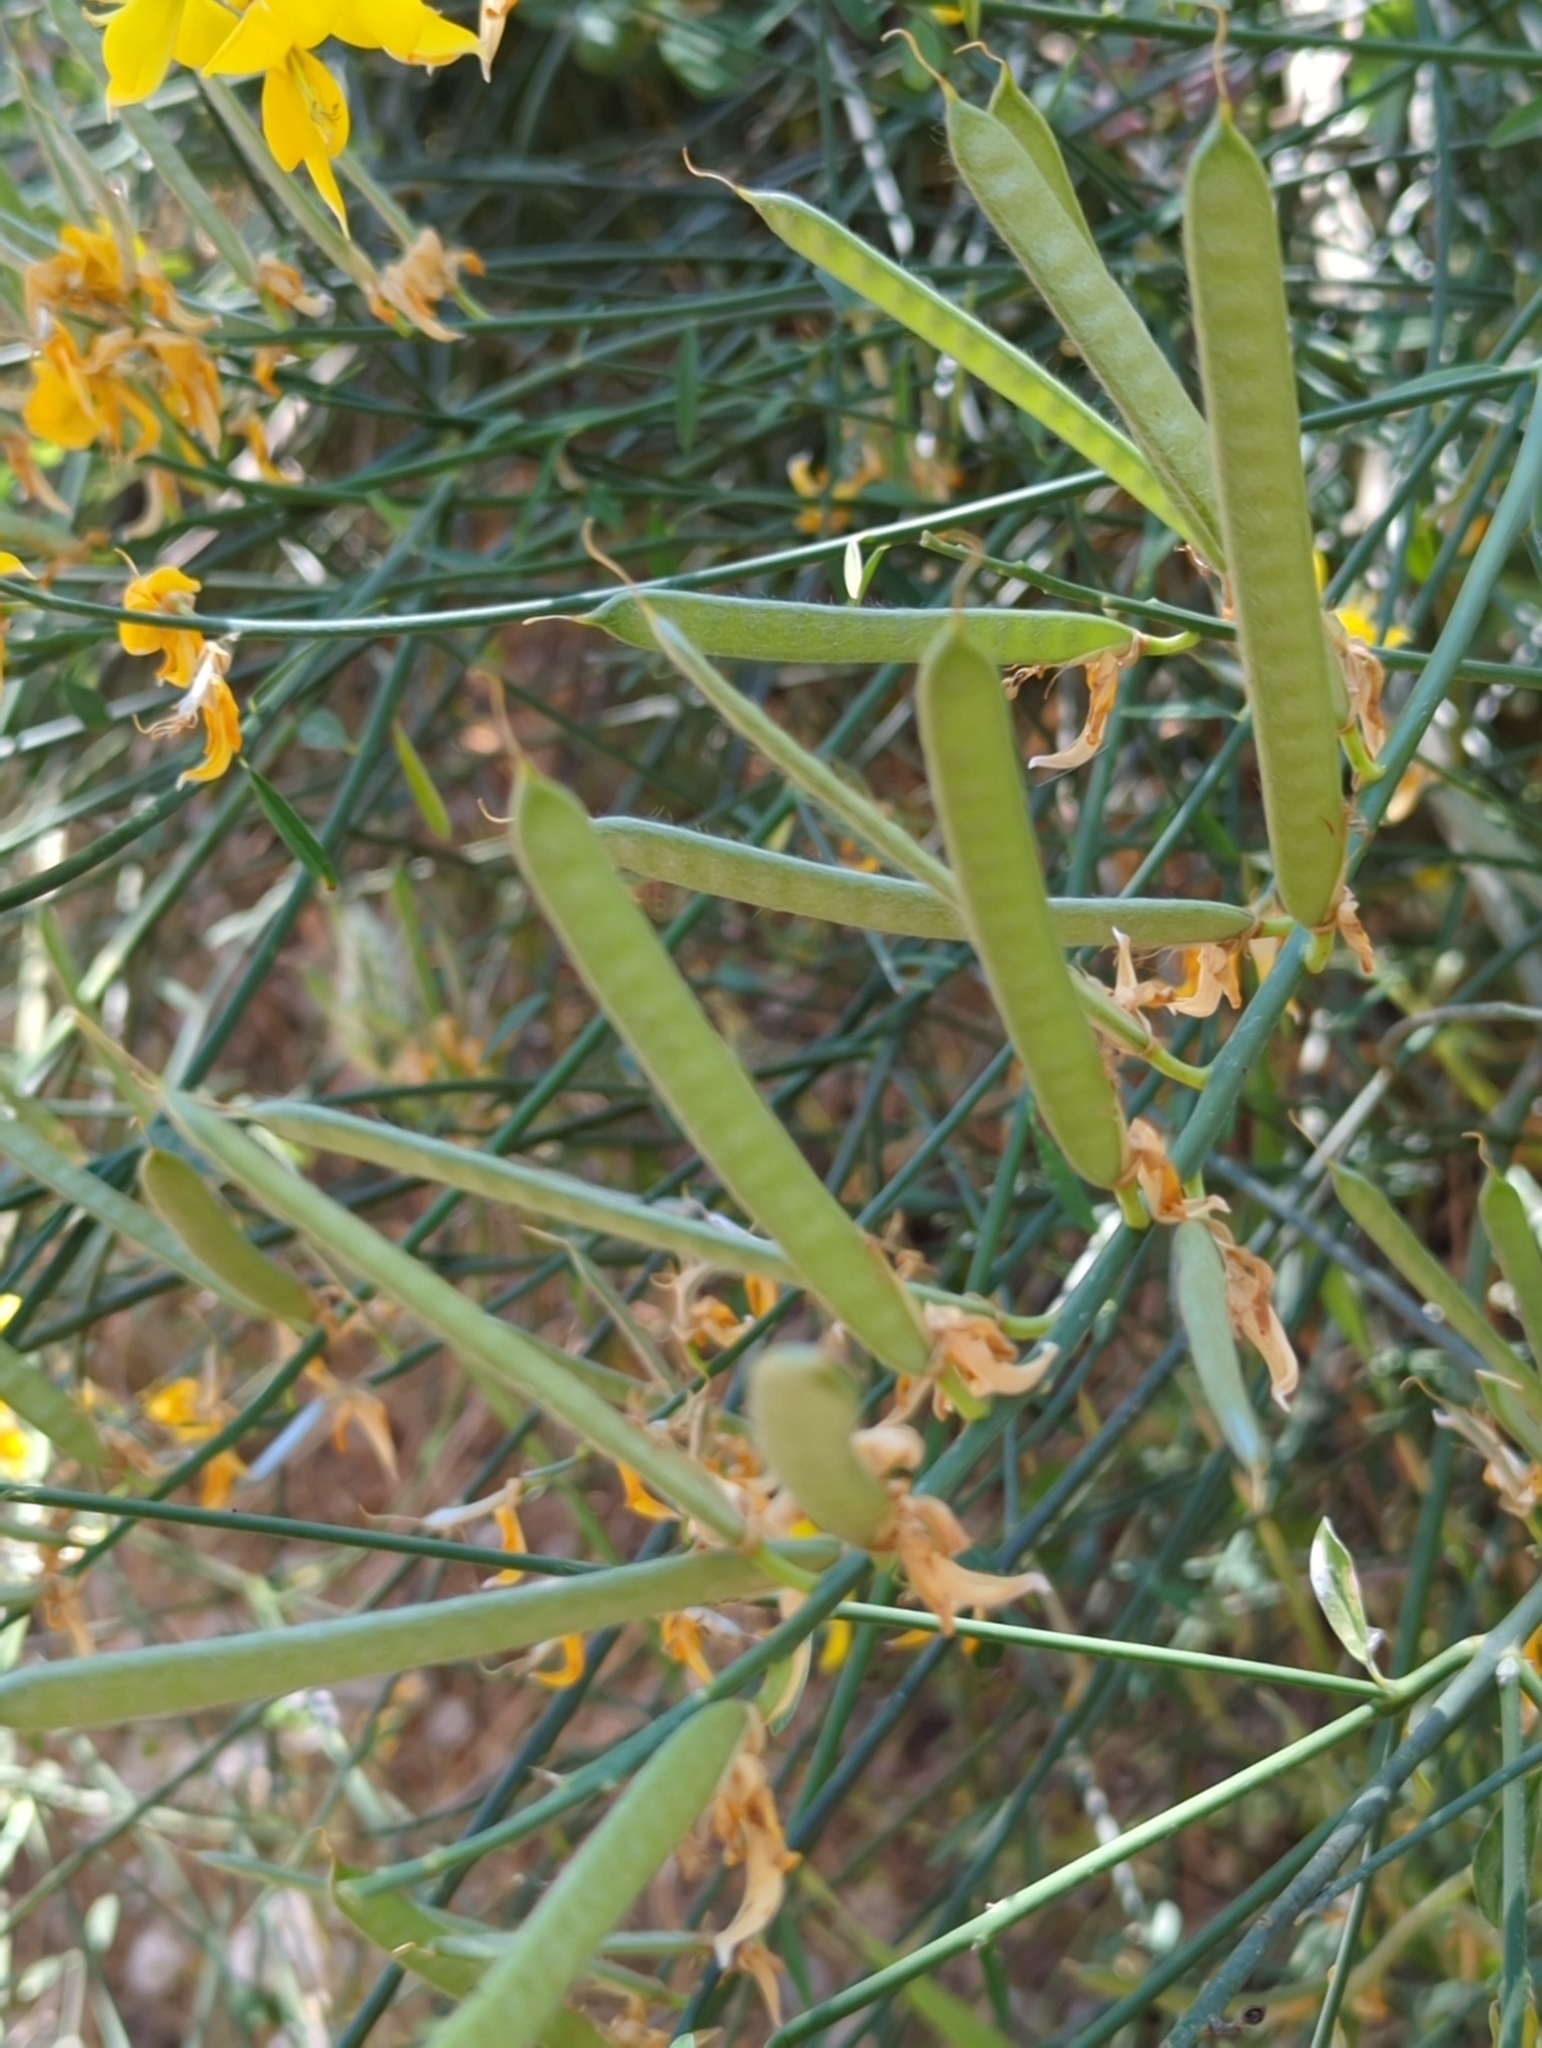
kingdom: Plantae
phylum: Tracheophyta
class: Magnoliopsida
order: Fabales
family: Fabaceae
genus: Spartium
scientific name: Spartium junceum
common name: Spanish broom
